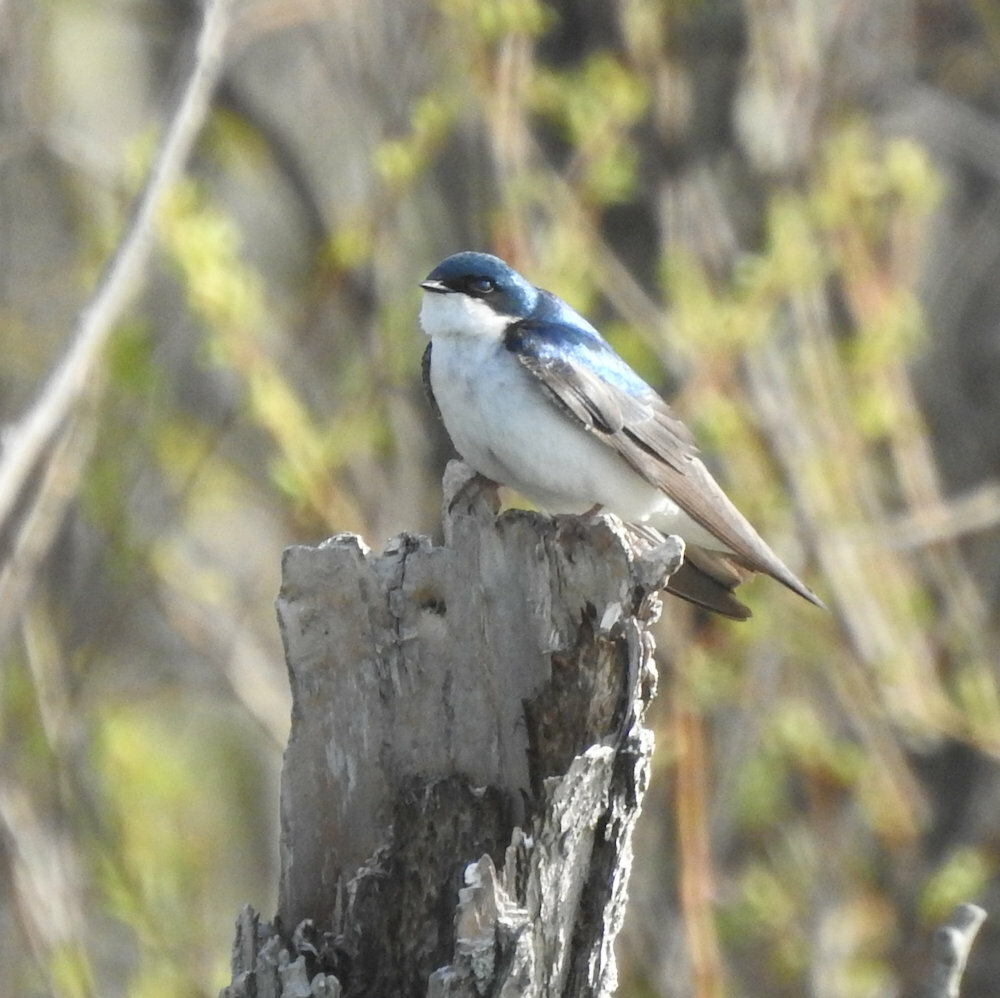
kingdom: Animalia
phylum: Chordata
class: Aves
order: Passeriformes
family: Hirundinidae
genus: Tachycineta
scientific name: Tachycineta bicolor
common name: Tree swallow
